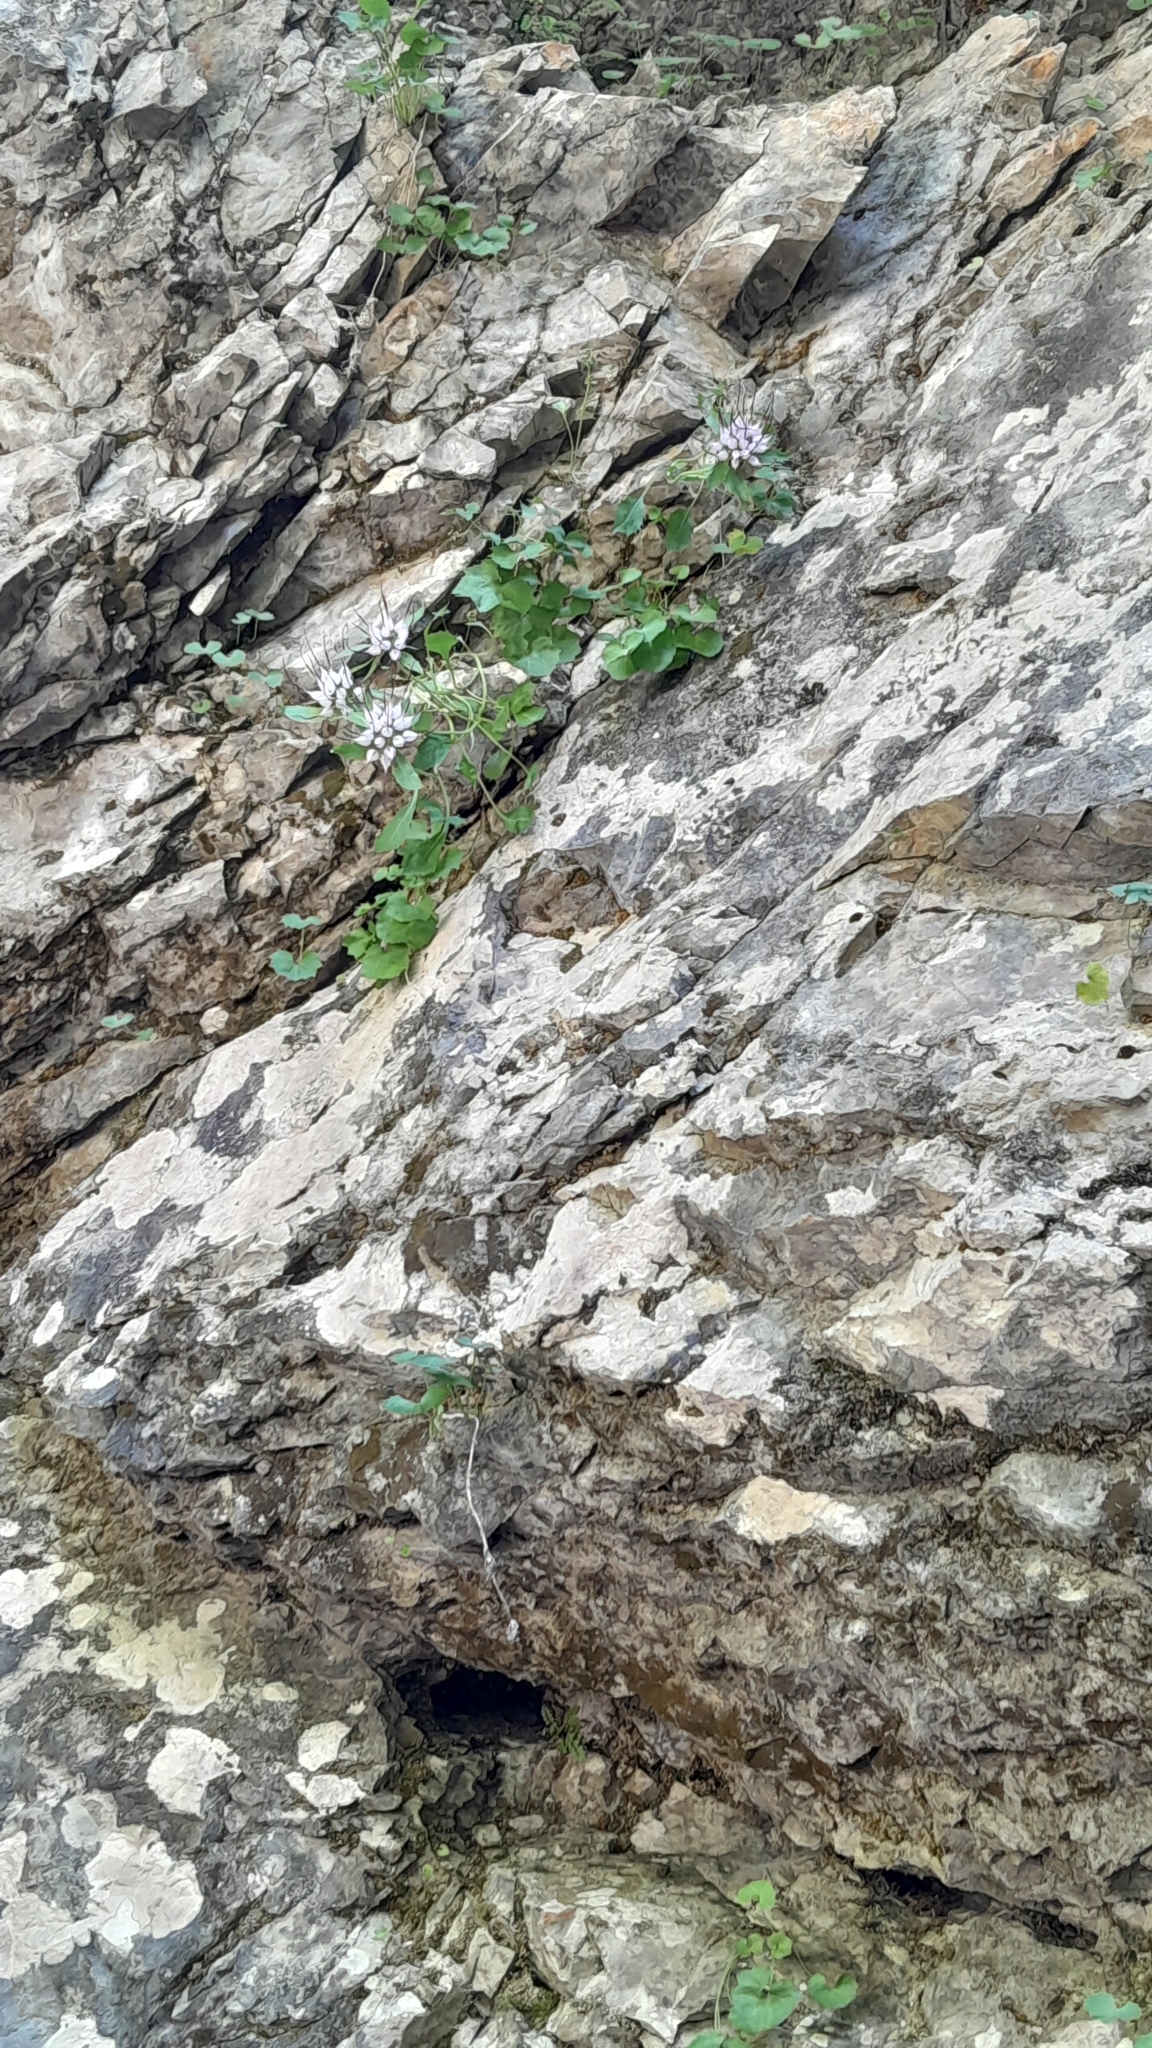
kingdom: Plantae
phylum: Tracheophyta
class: Magnoliopsida
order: Asterales
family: Campanulaceae
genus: Physoplexis
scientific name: Physoplexis comosa
